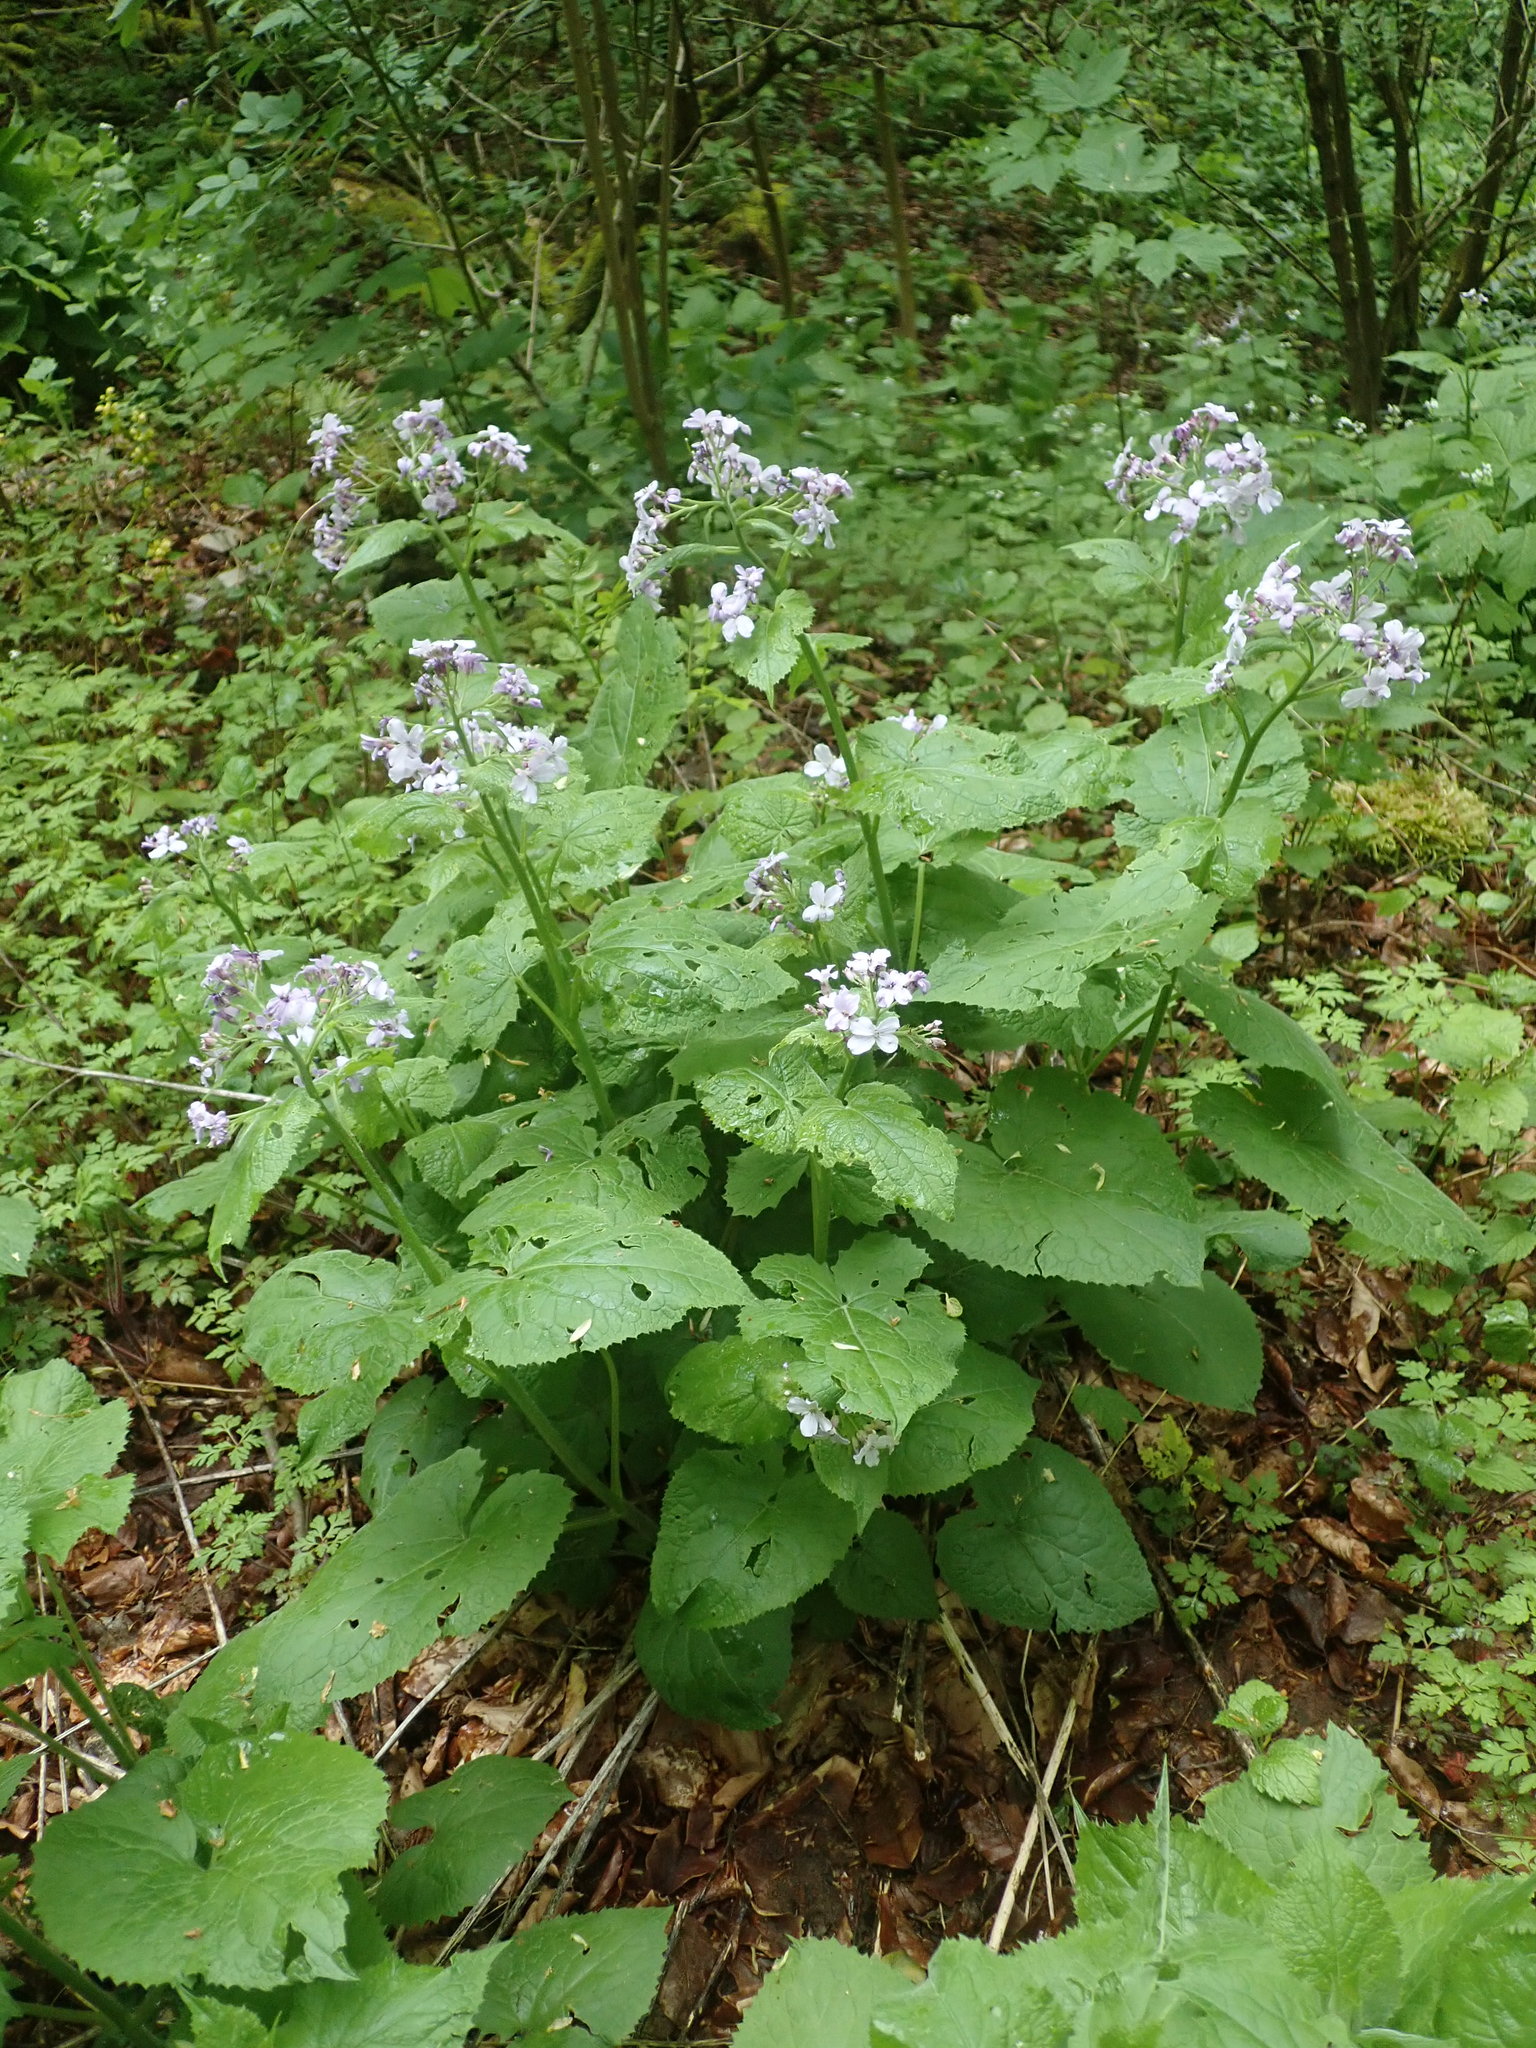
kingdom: Plantae
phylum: Tracheophyta
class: Magnoliopsida
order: Brassicales
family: Brassicaceae
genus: Lunaria
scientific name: Lunaria rediviva
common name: Perennial honesty
